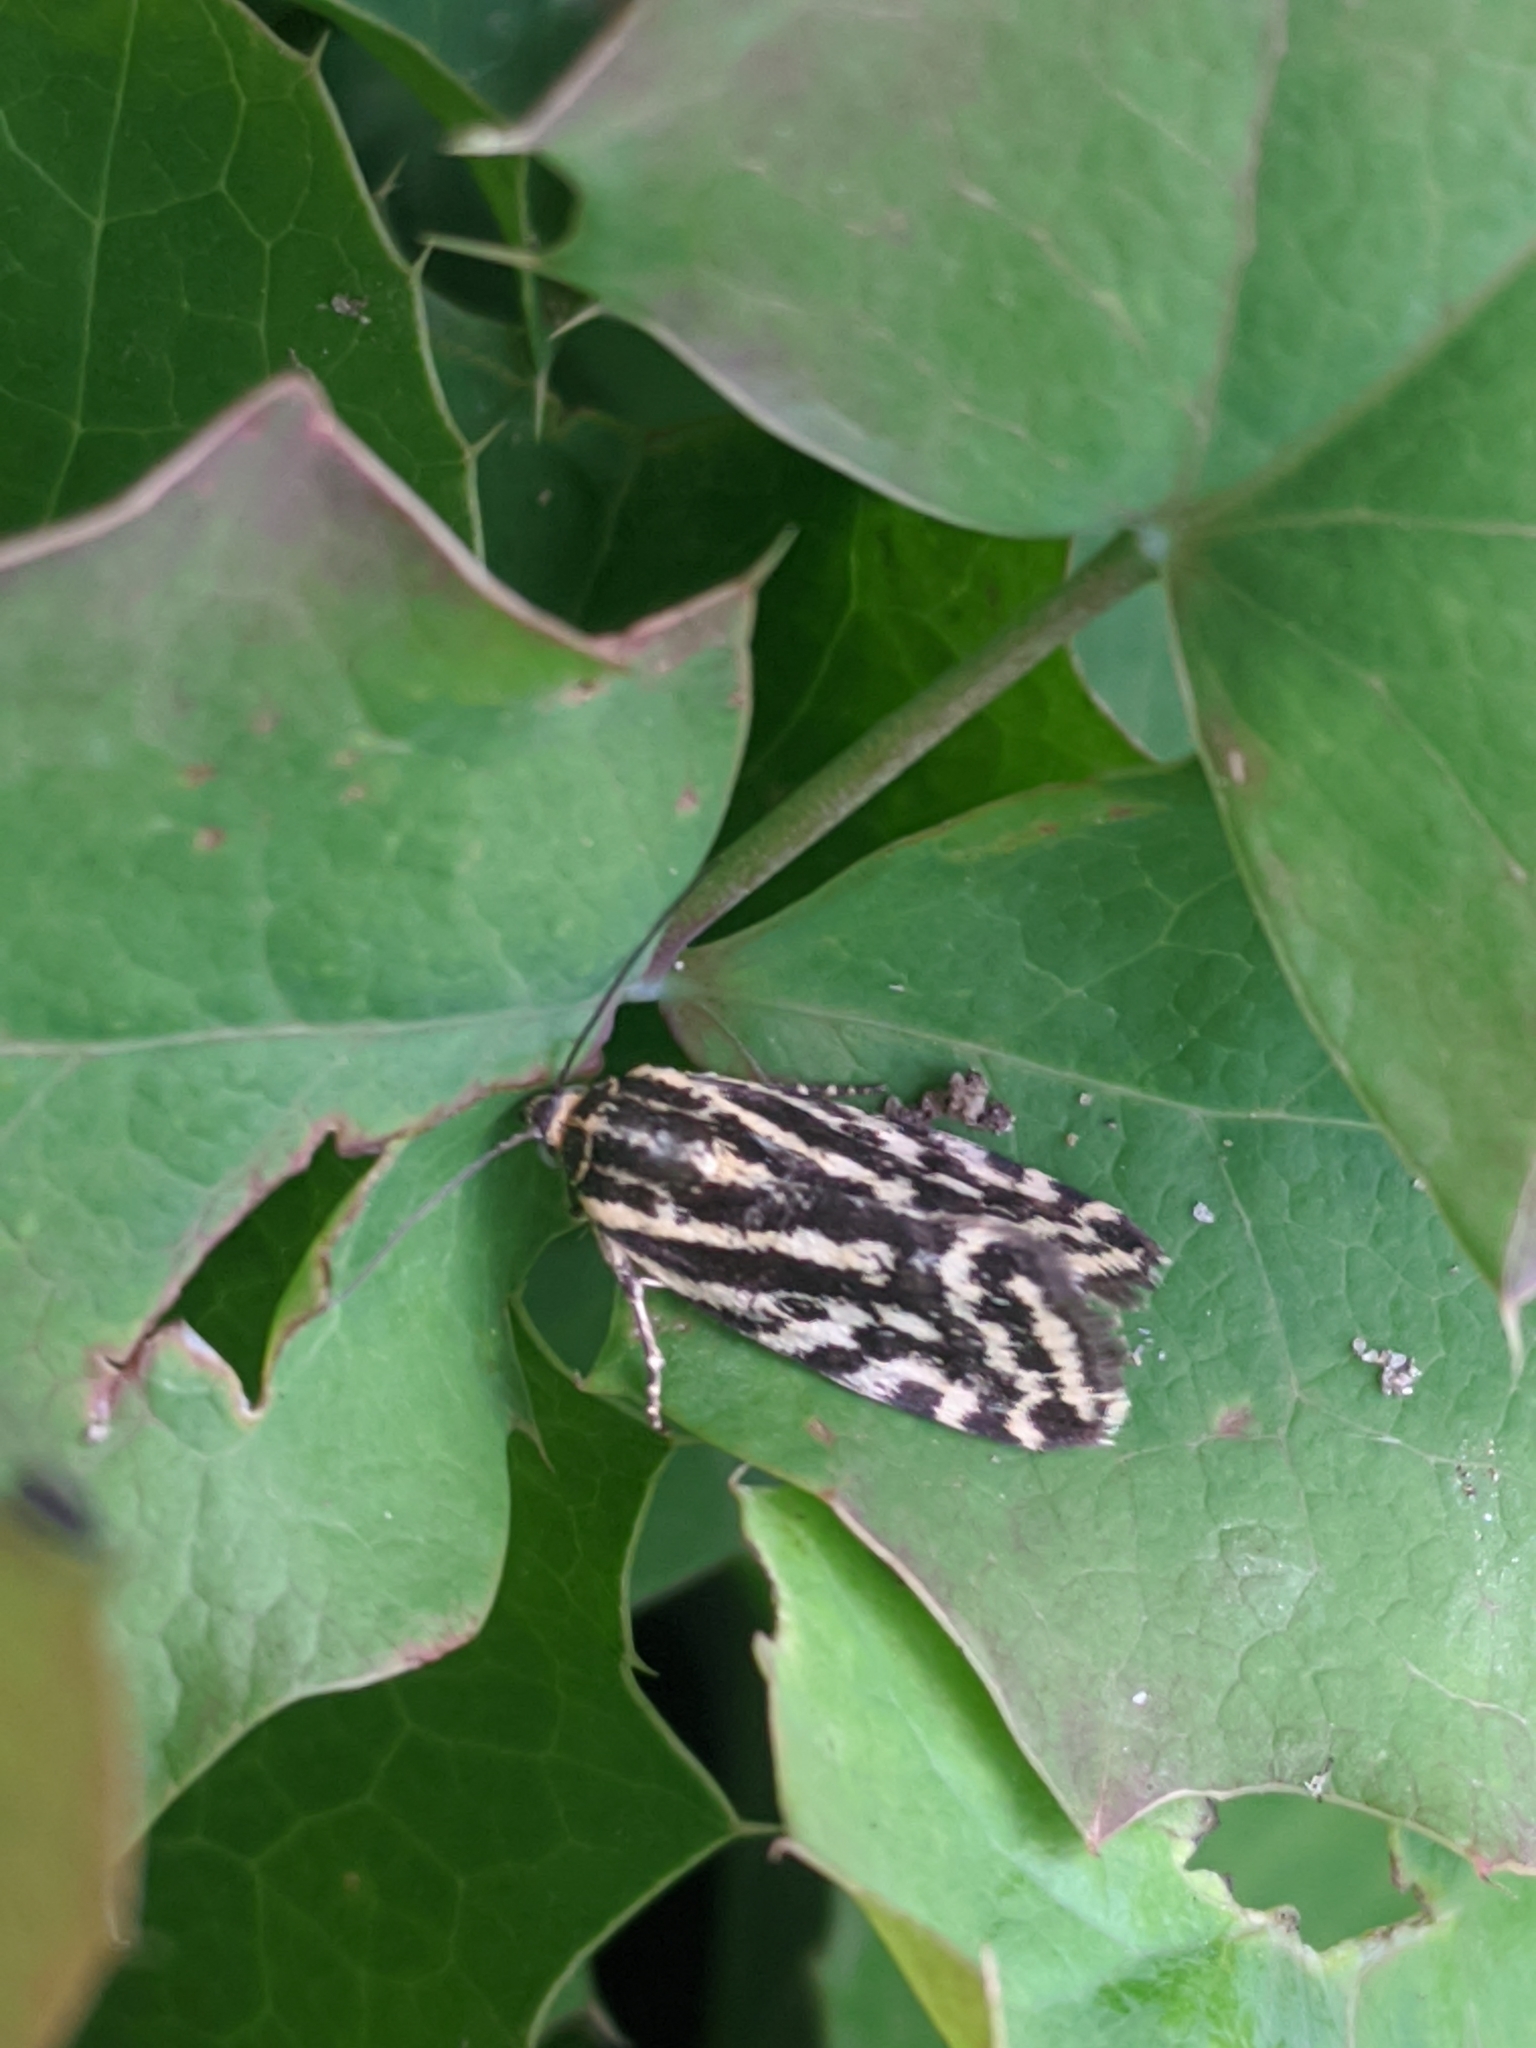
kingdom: Animalia
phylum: Arthropoda
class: Insecta
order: Lepidoptera
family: Noctuidae
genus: Acontia
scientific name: Acontia trabealis
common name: Spotted sulphur
